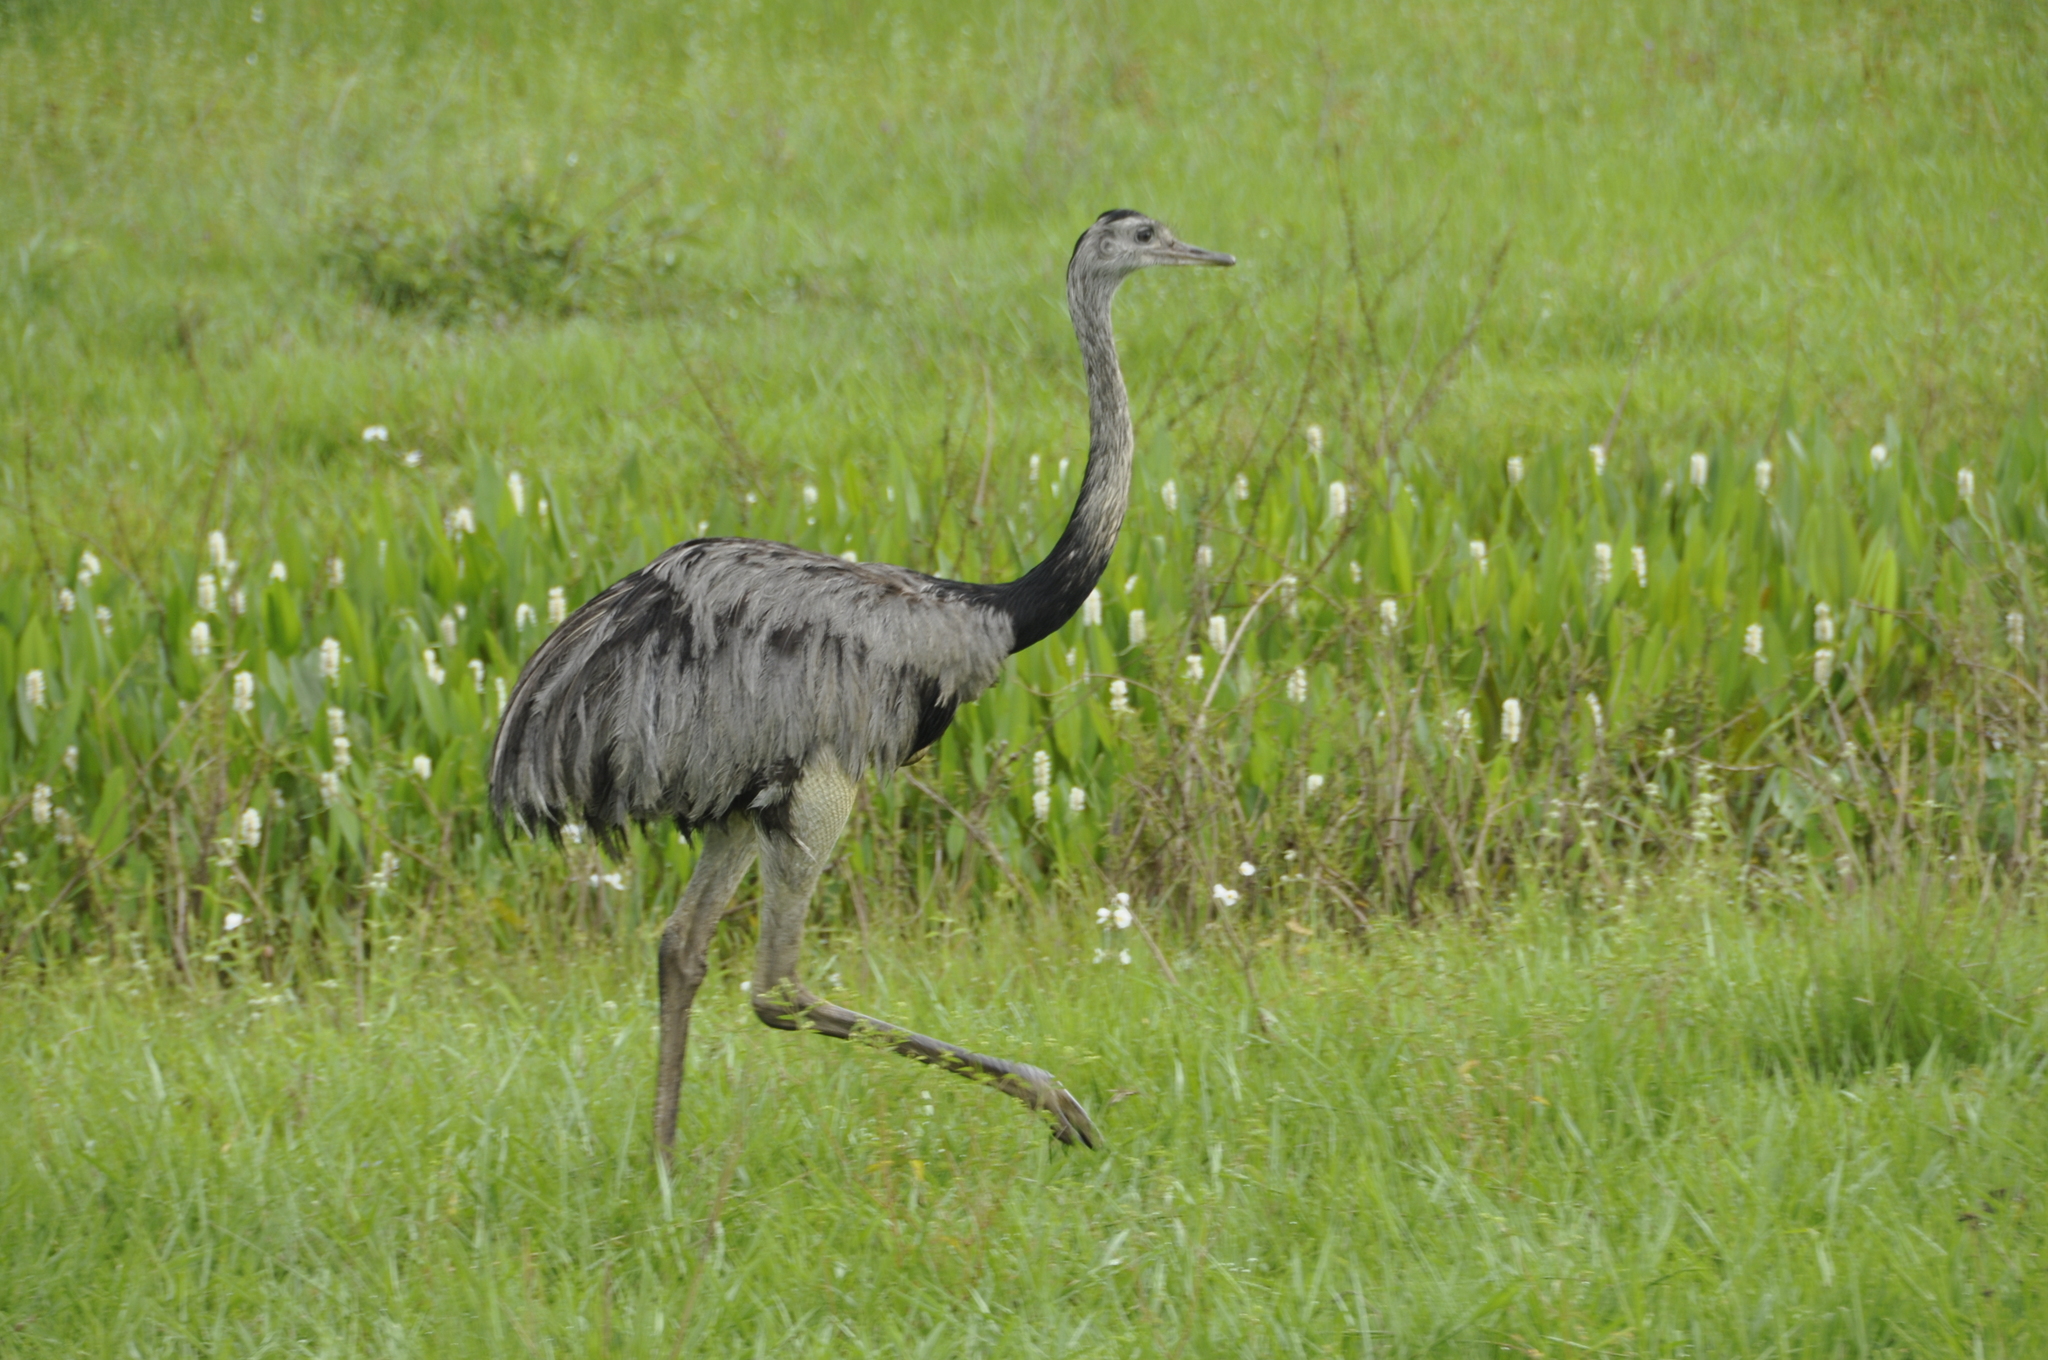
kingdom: Animalia
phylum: Chordata
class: Aves
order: Rheiformes
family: Rheidae
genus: Rhea
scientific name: Rhea americana
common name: Greater rhea
